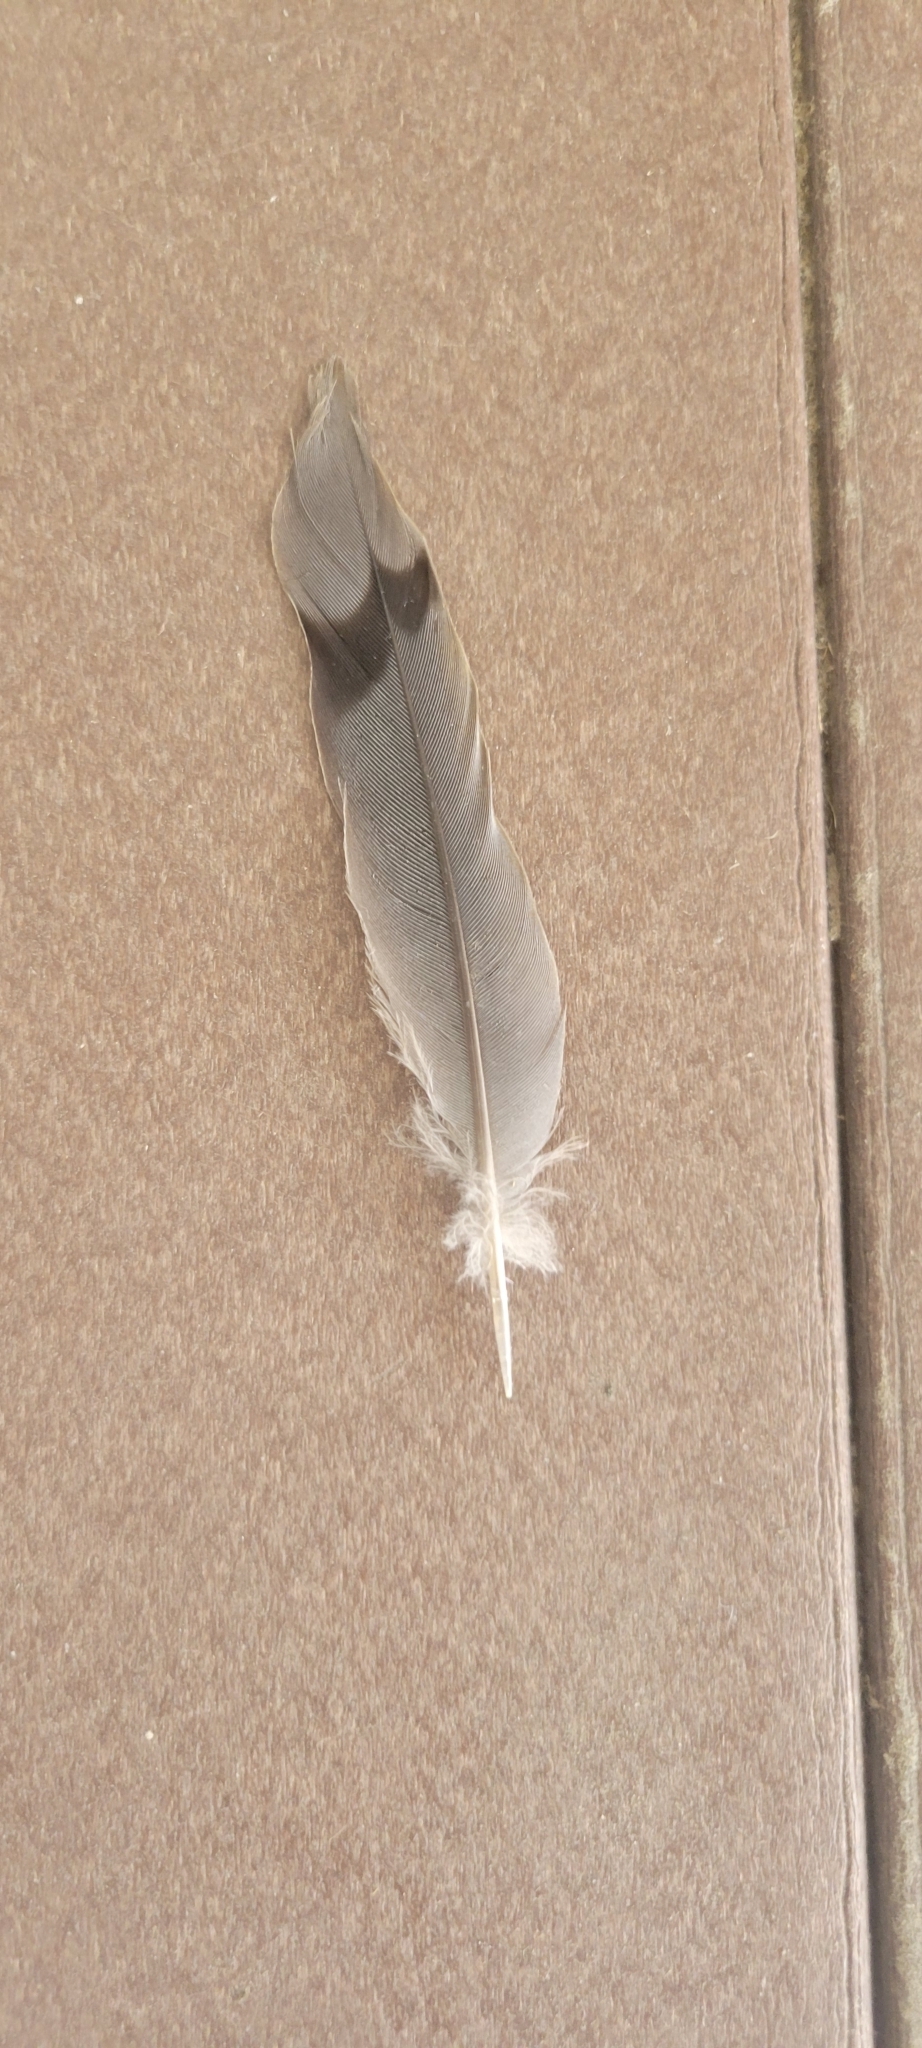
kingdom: Animalia
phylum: Chordata
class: Aves
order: Columbiformes
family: Columbidae
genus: Zenaida
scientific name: Zenaida macroura
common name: Mourning dove
